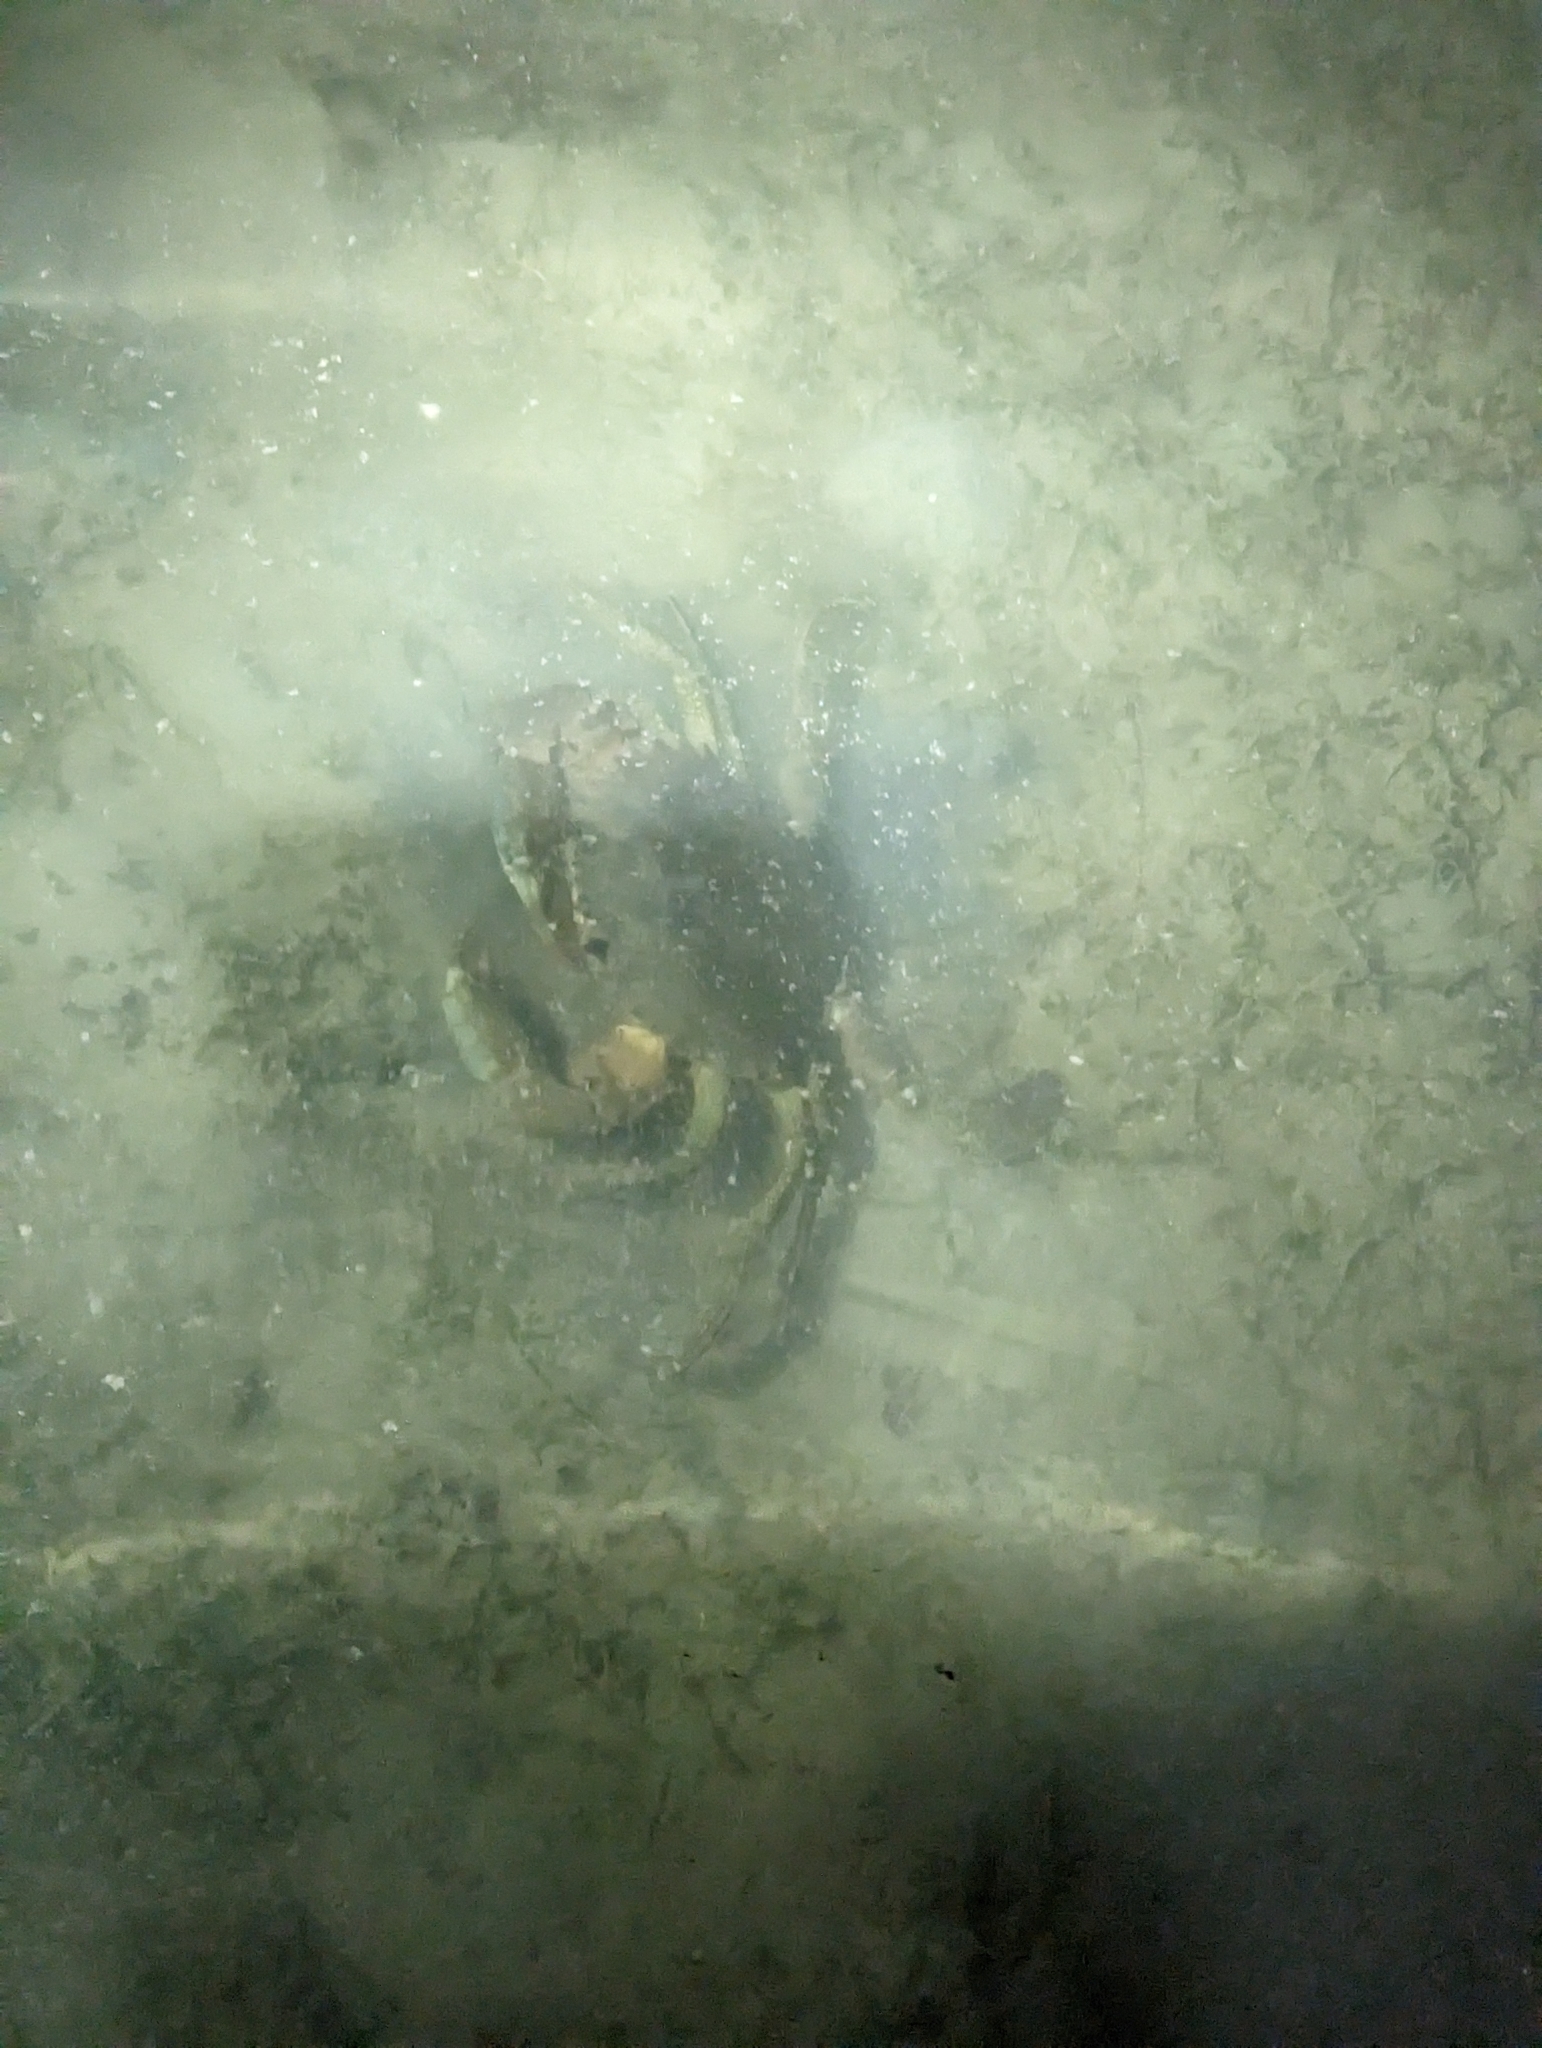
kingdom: Animalia
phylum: Arthropoda
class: Malacostraca
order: Decapoda
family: Portunidae
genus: Scylla
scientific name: Scylla serrata
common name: Giant mud crab
